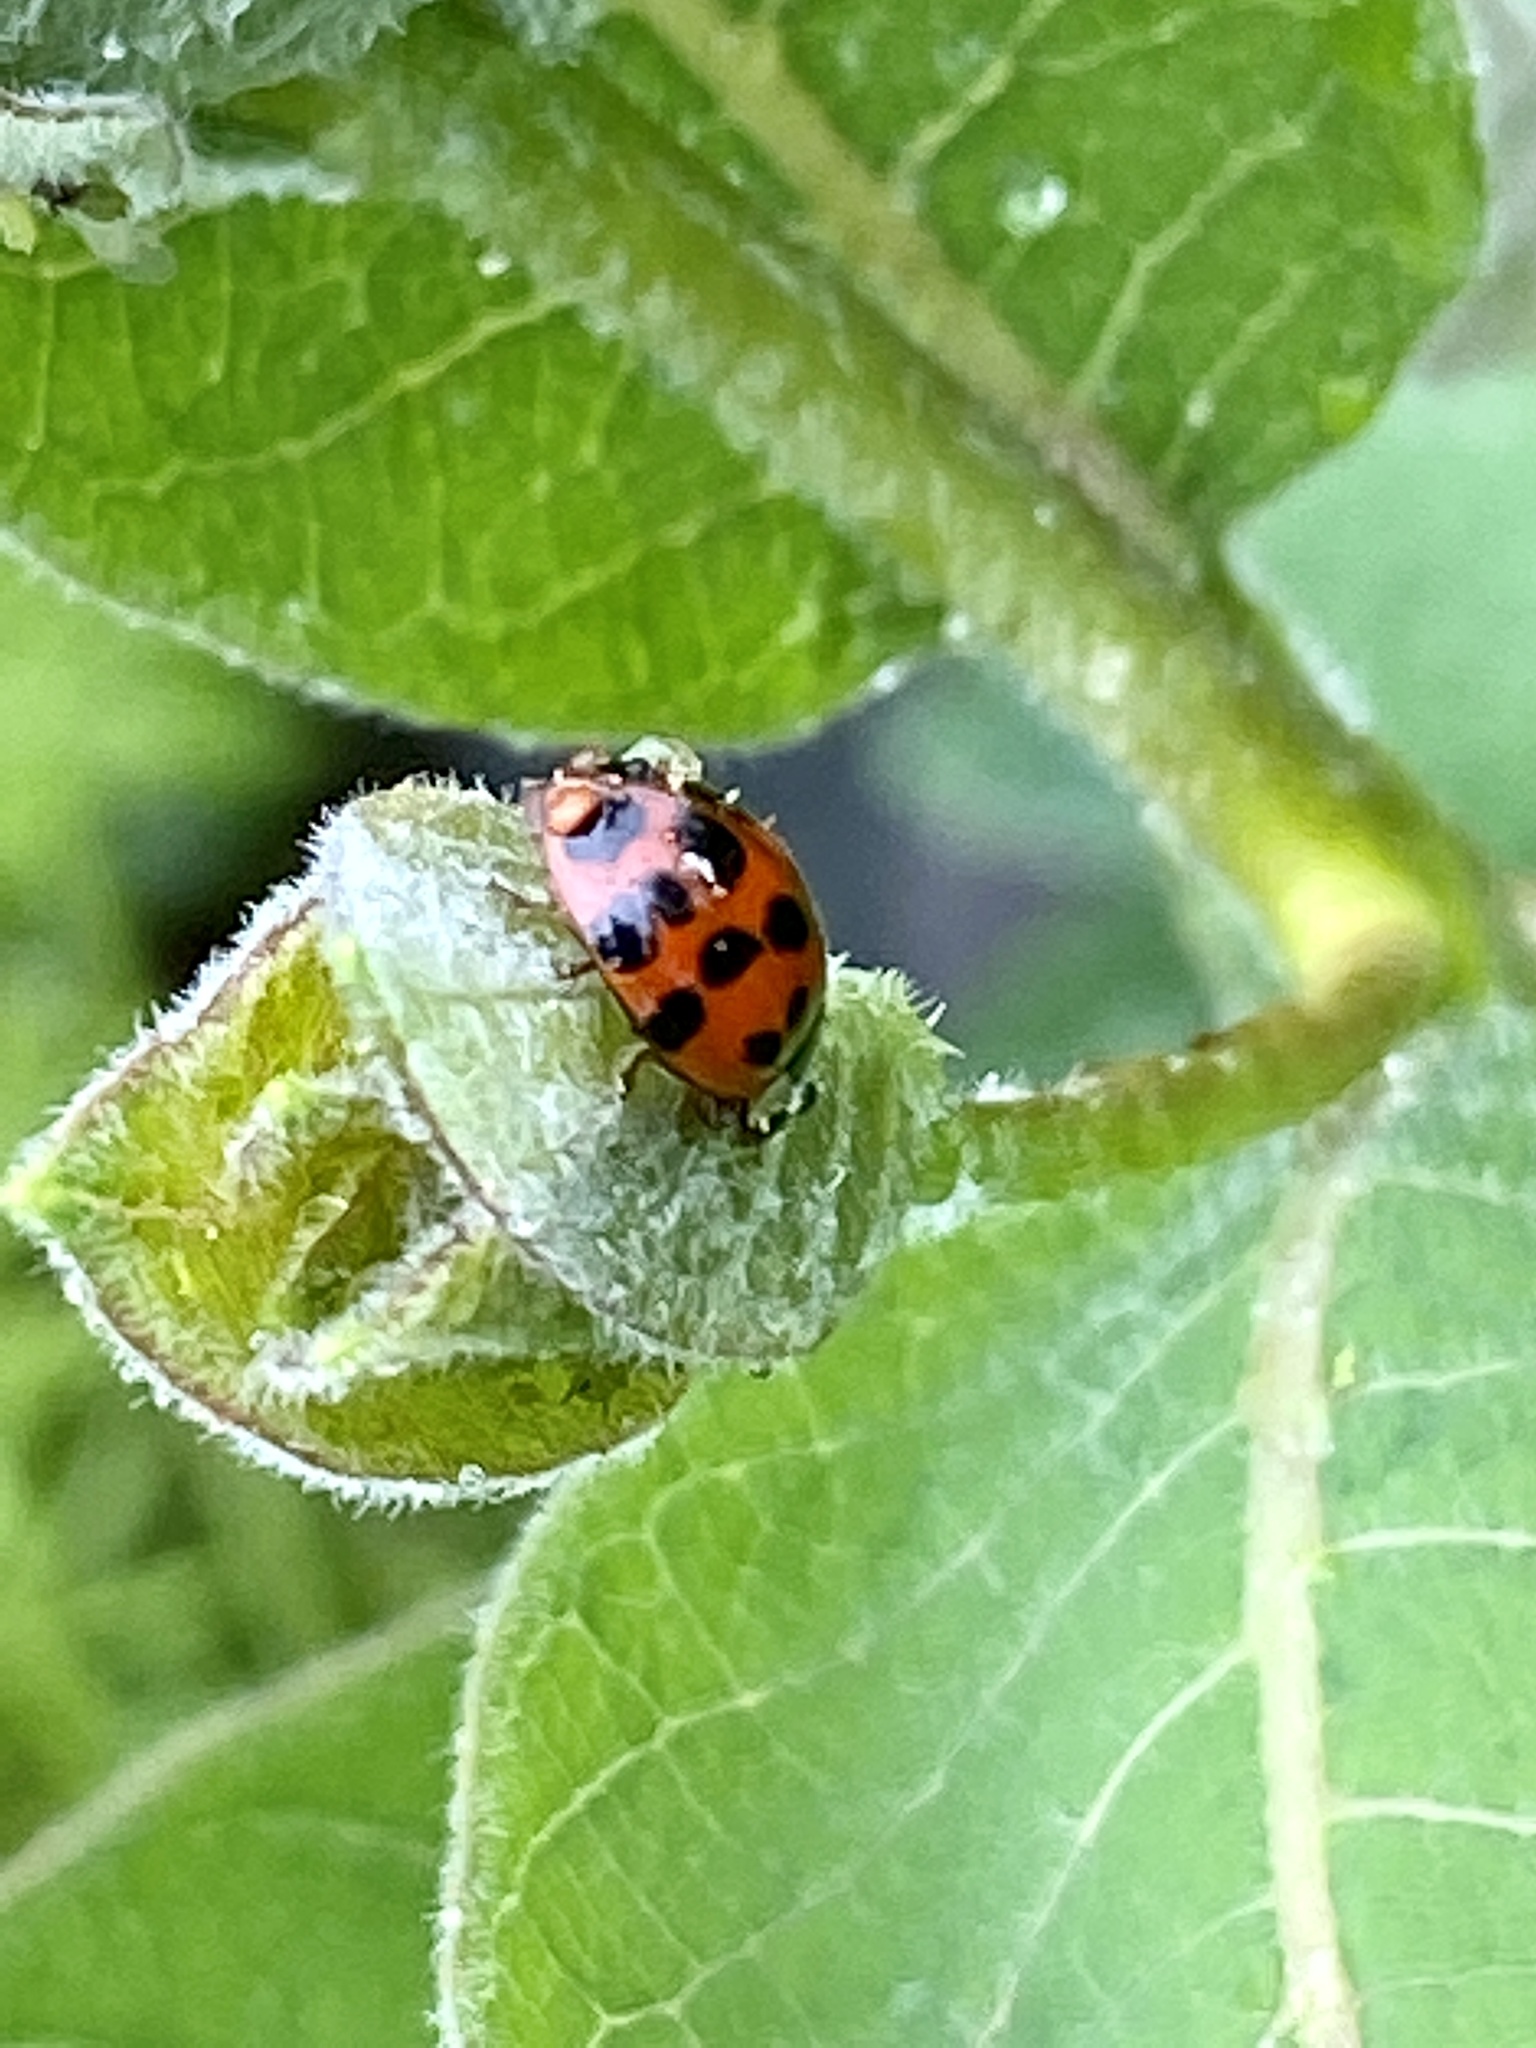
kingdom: Fungi
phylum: Ascomycota
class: Laboulbeniomycetes
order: Laboulbeniales
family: Laboulbeniaceae
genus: Hesperomyces
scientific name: Hesperomyces harmoniae
